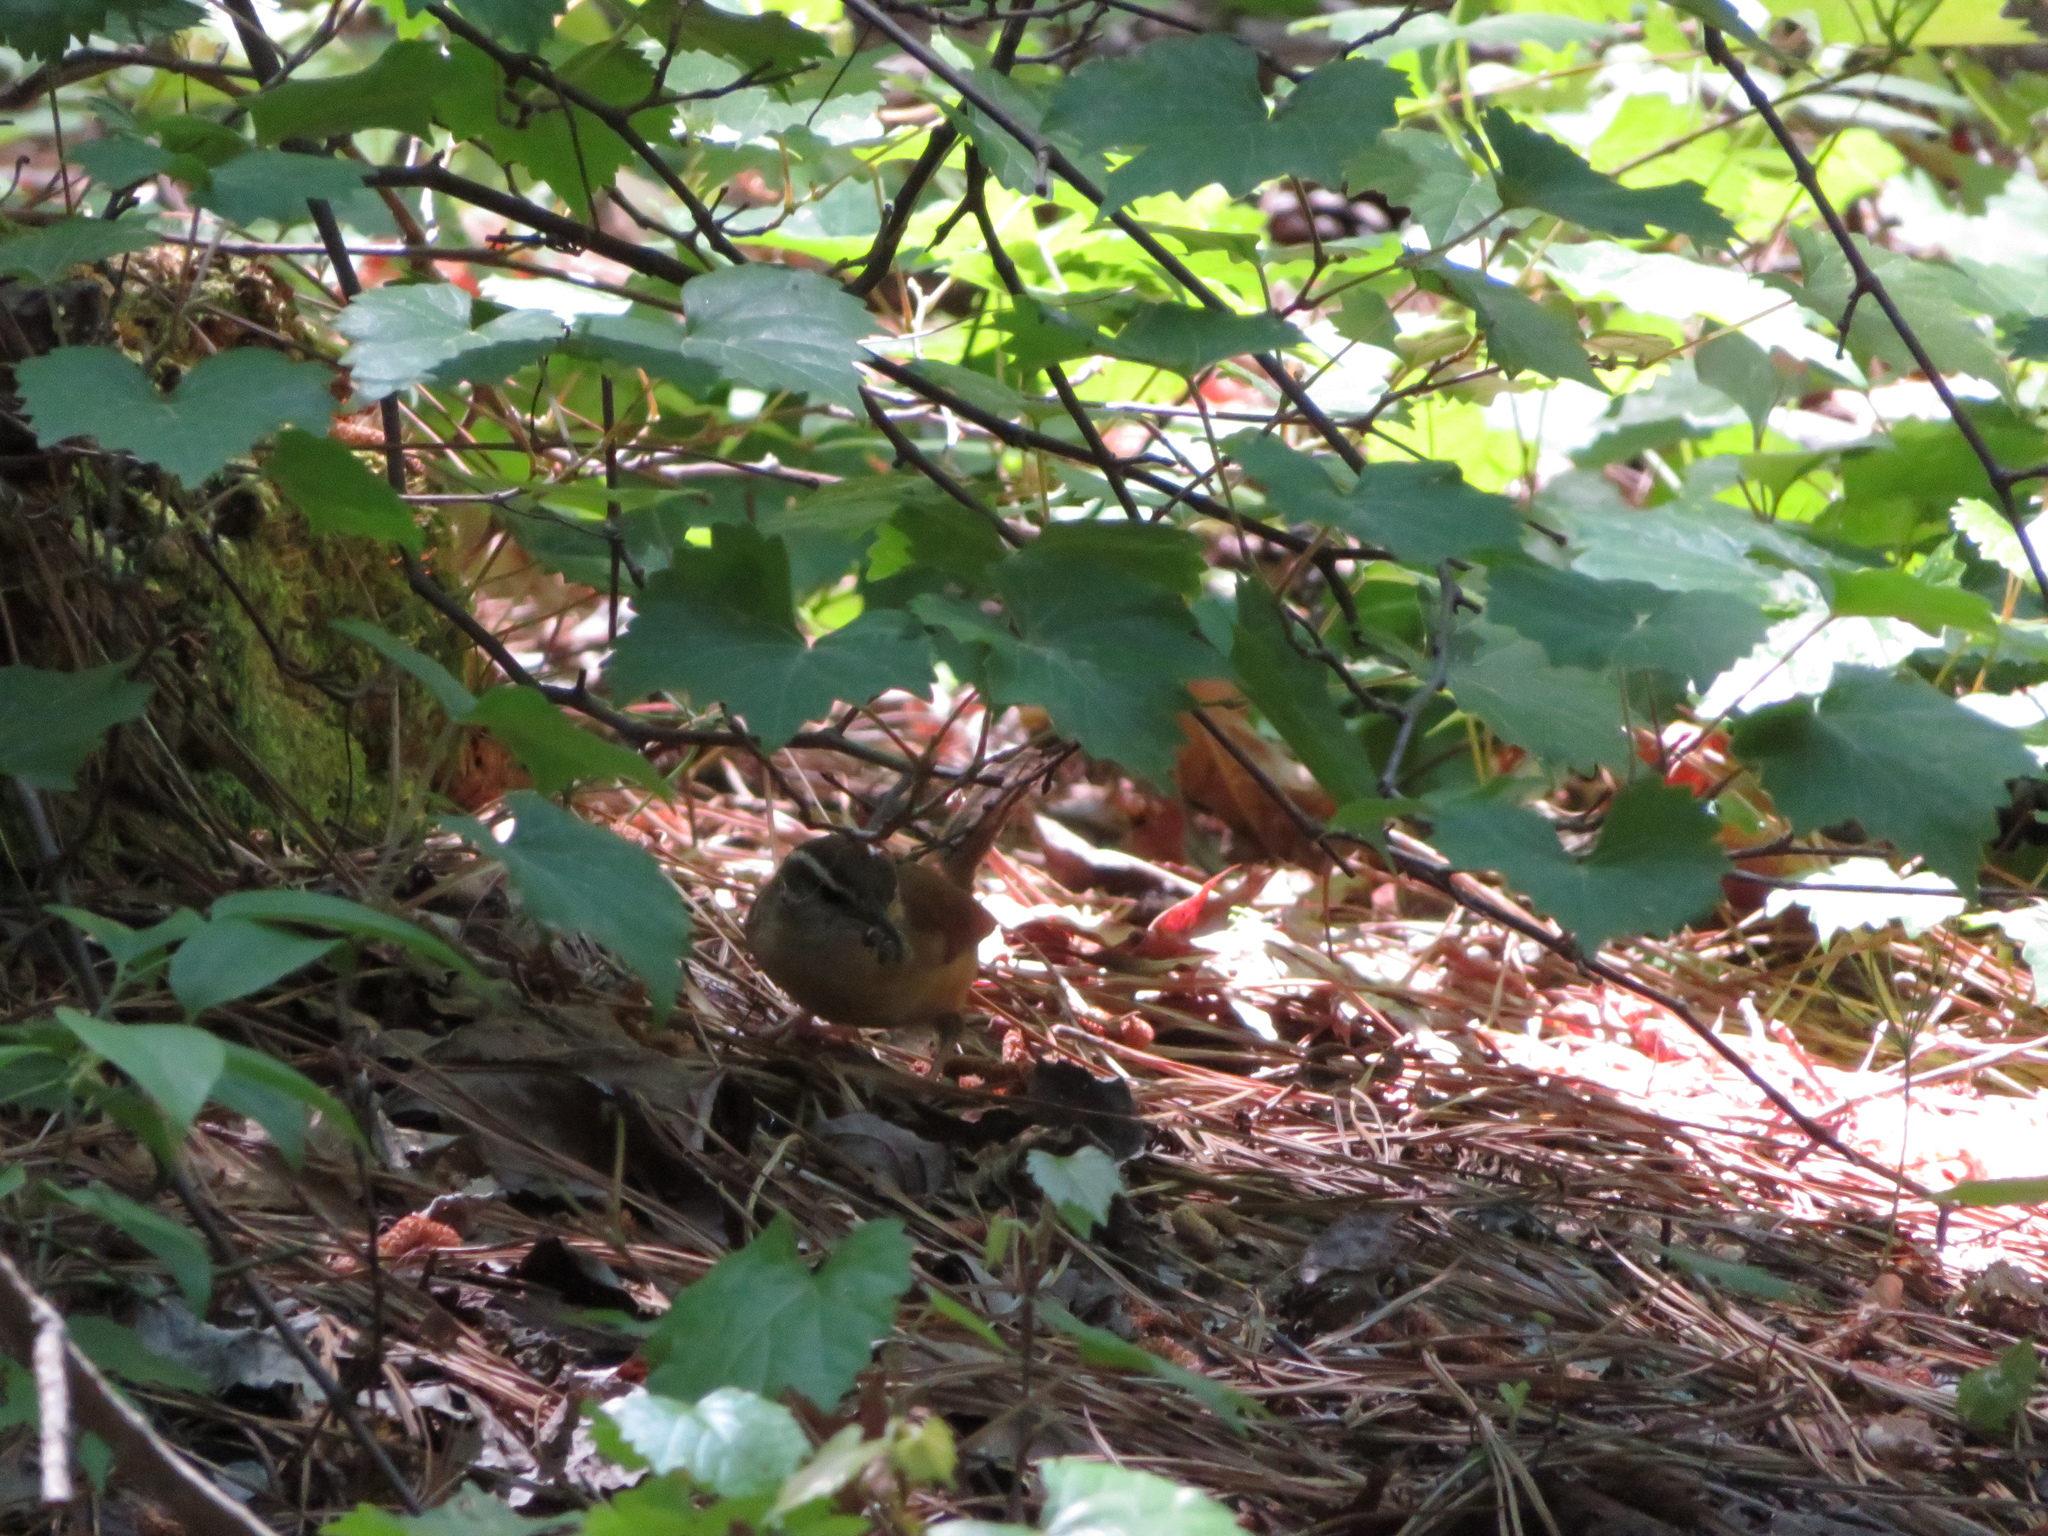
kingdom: Animalia
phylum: Chordata
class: Aves
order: Passeriformes
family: Troglodytidae
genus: Thryothorus
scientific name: Thryothorus ludovicianus
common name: Carolina wren
